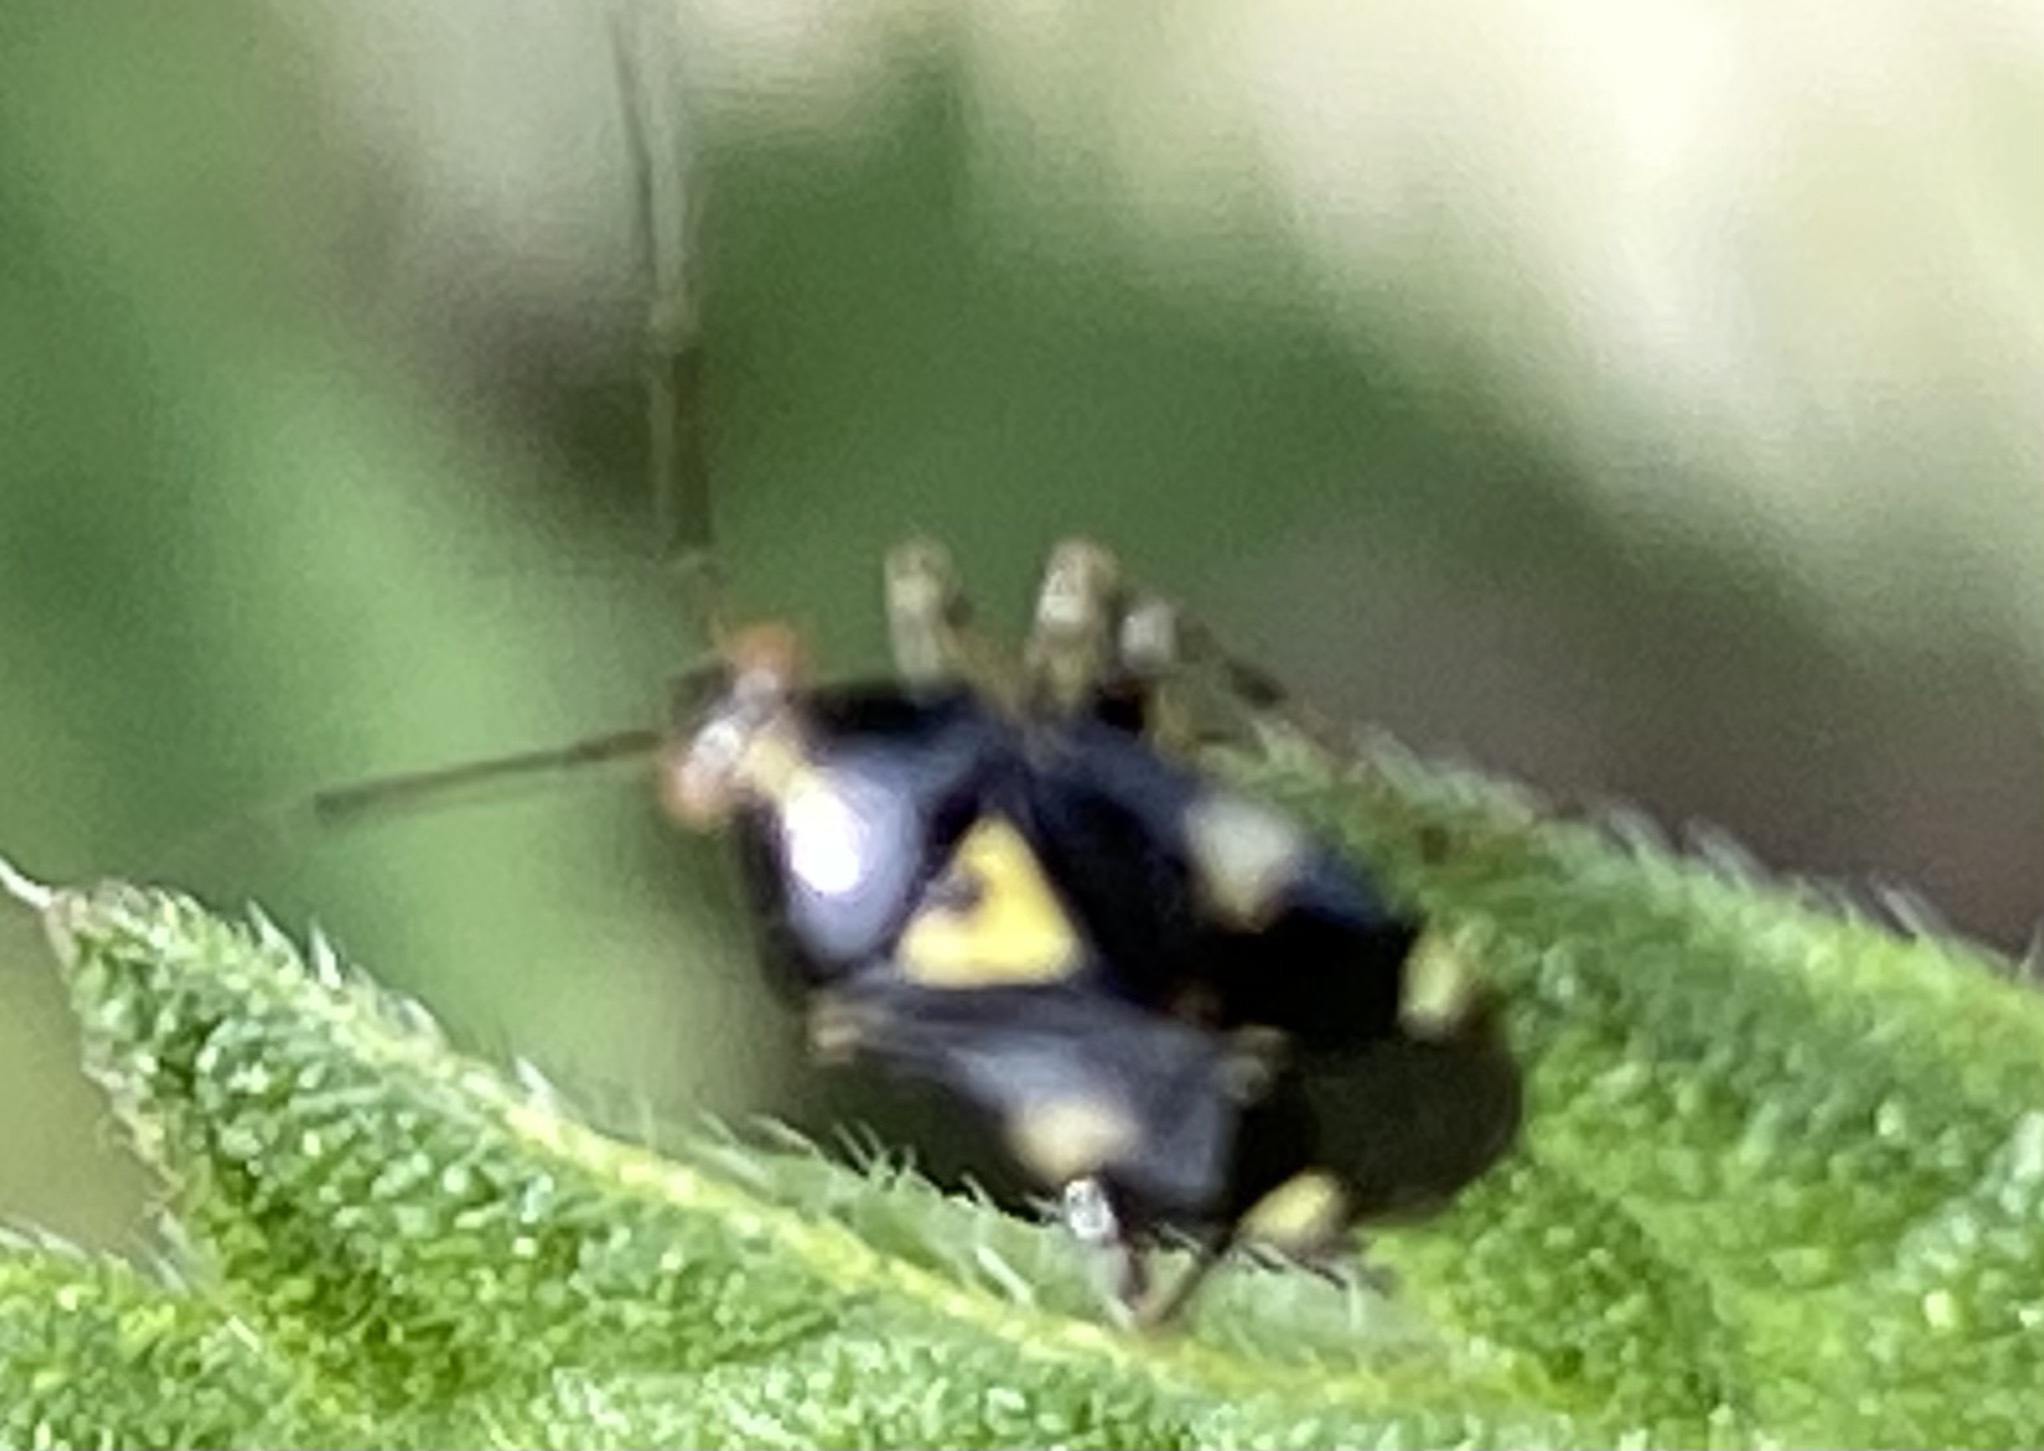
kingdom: Animalia
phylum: Arthropoda
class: Insecta
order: Hemiptera
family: Miridae
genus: Liocoris
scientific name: Liocoris tripustulatus
